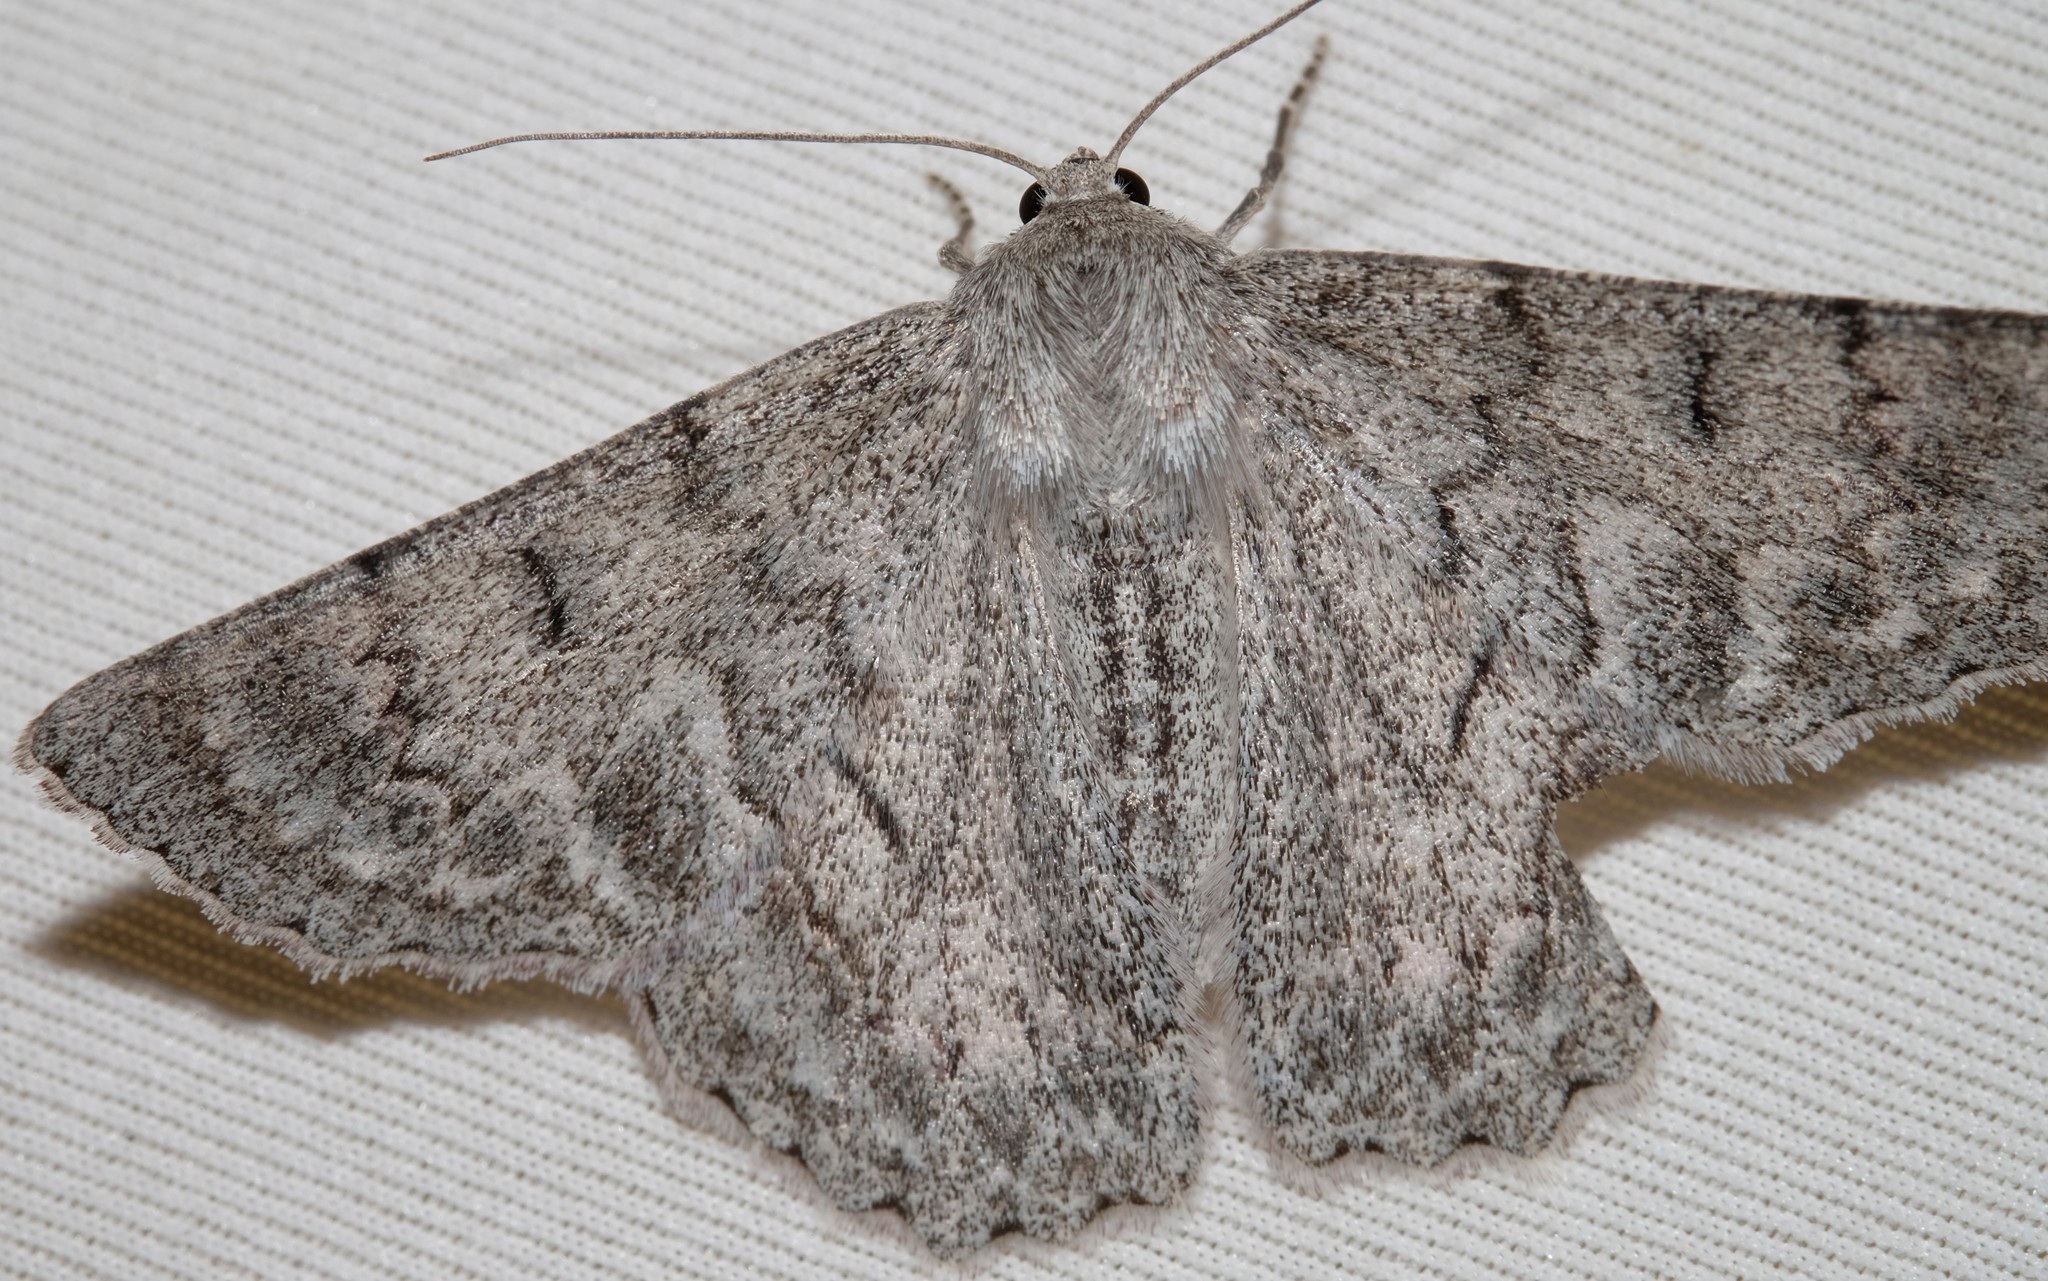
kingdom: Animalia
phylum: Arthropoda
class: Insecta
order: Lepidoptera
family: Geometridae
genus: Crypsiphona
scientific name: Crypsiphona ocultaria
